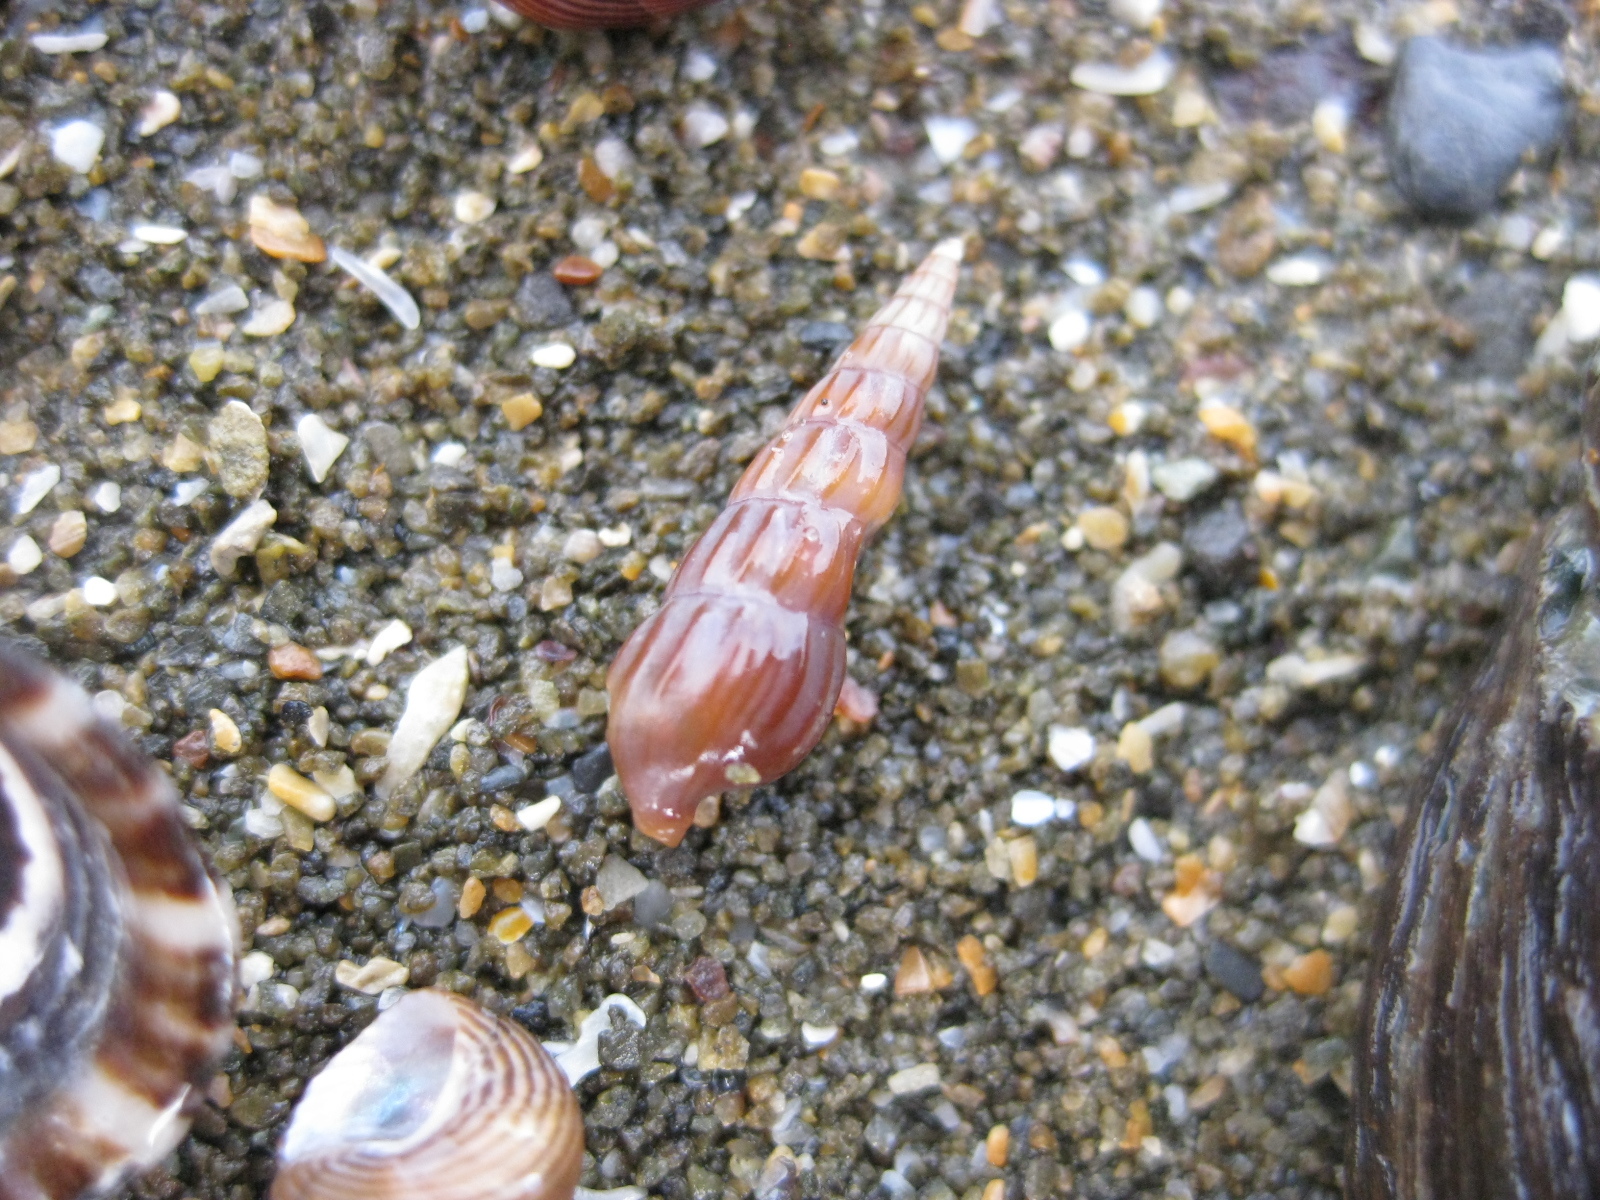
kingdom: Animalia
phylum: Mollusca
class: Gastropoda
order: Neogastropoda
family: Terebridae
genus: Duplicaria
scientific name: Duplicaria tristis
